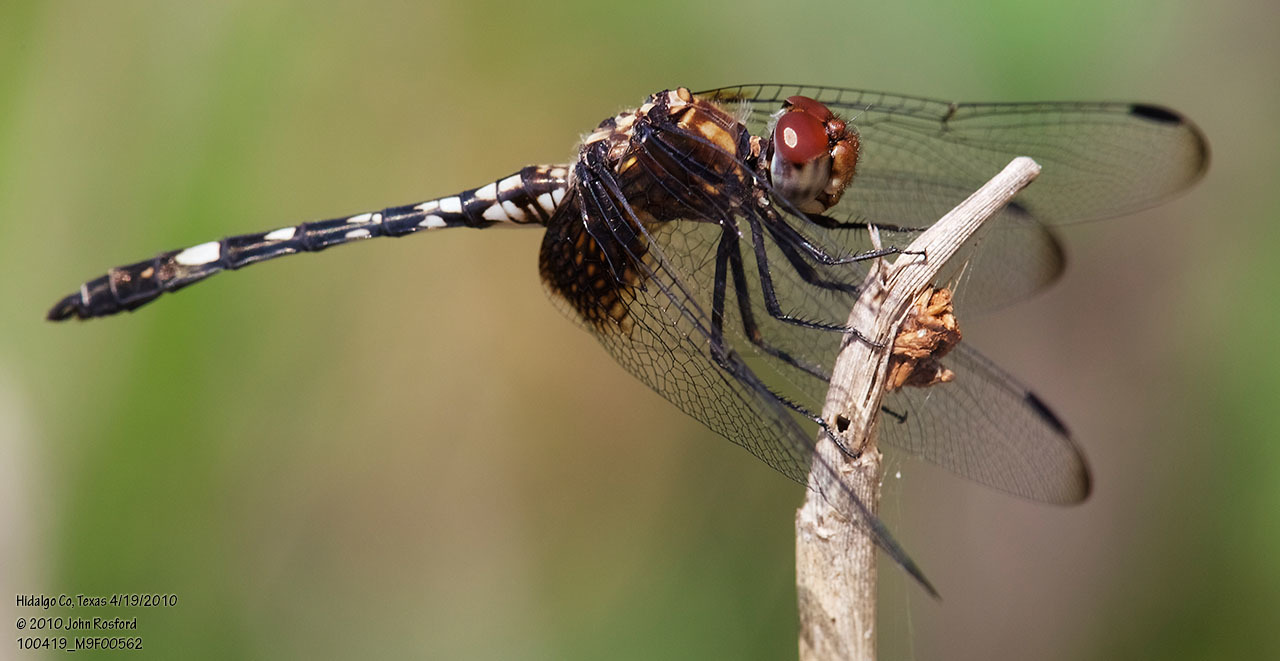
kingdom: Animalia
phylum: Arthropoda
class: Insecta
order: Odonata
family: Libellulidae
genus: Dythemis
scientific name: Dythemis fugax
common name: Checkered setwing
